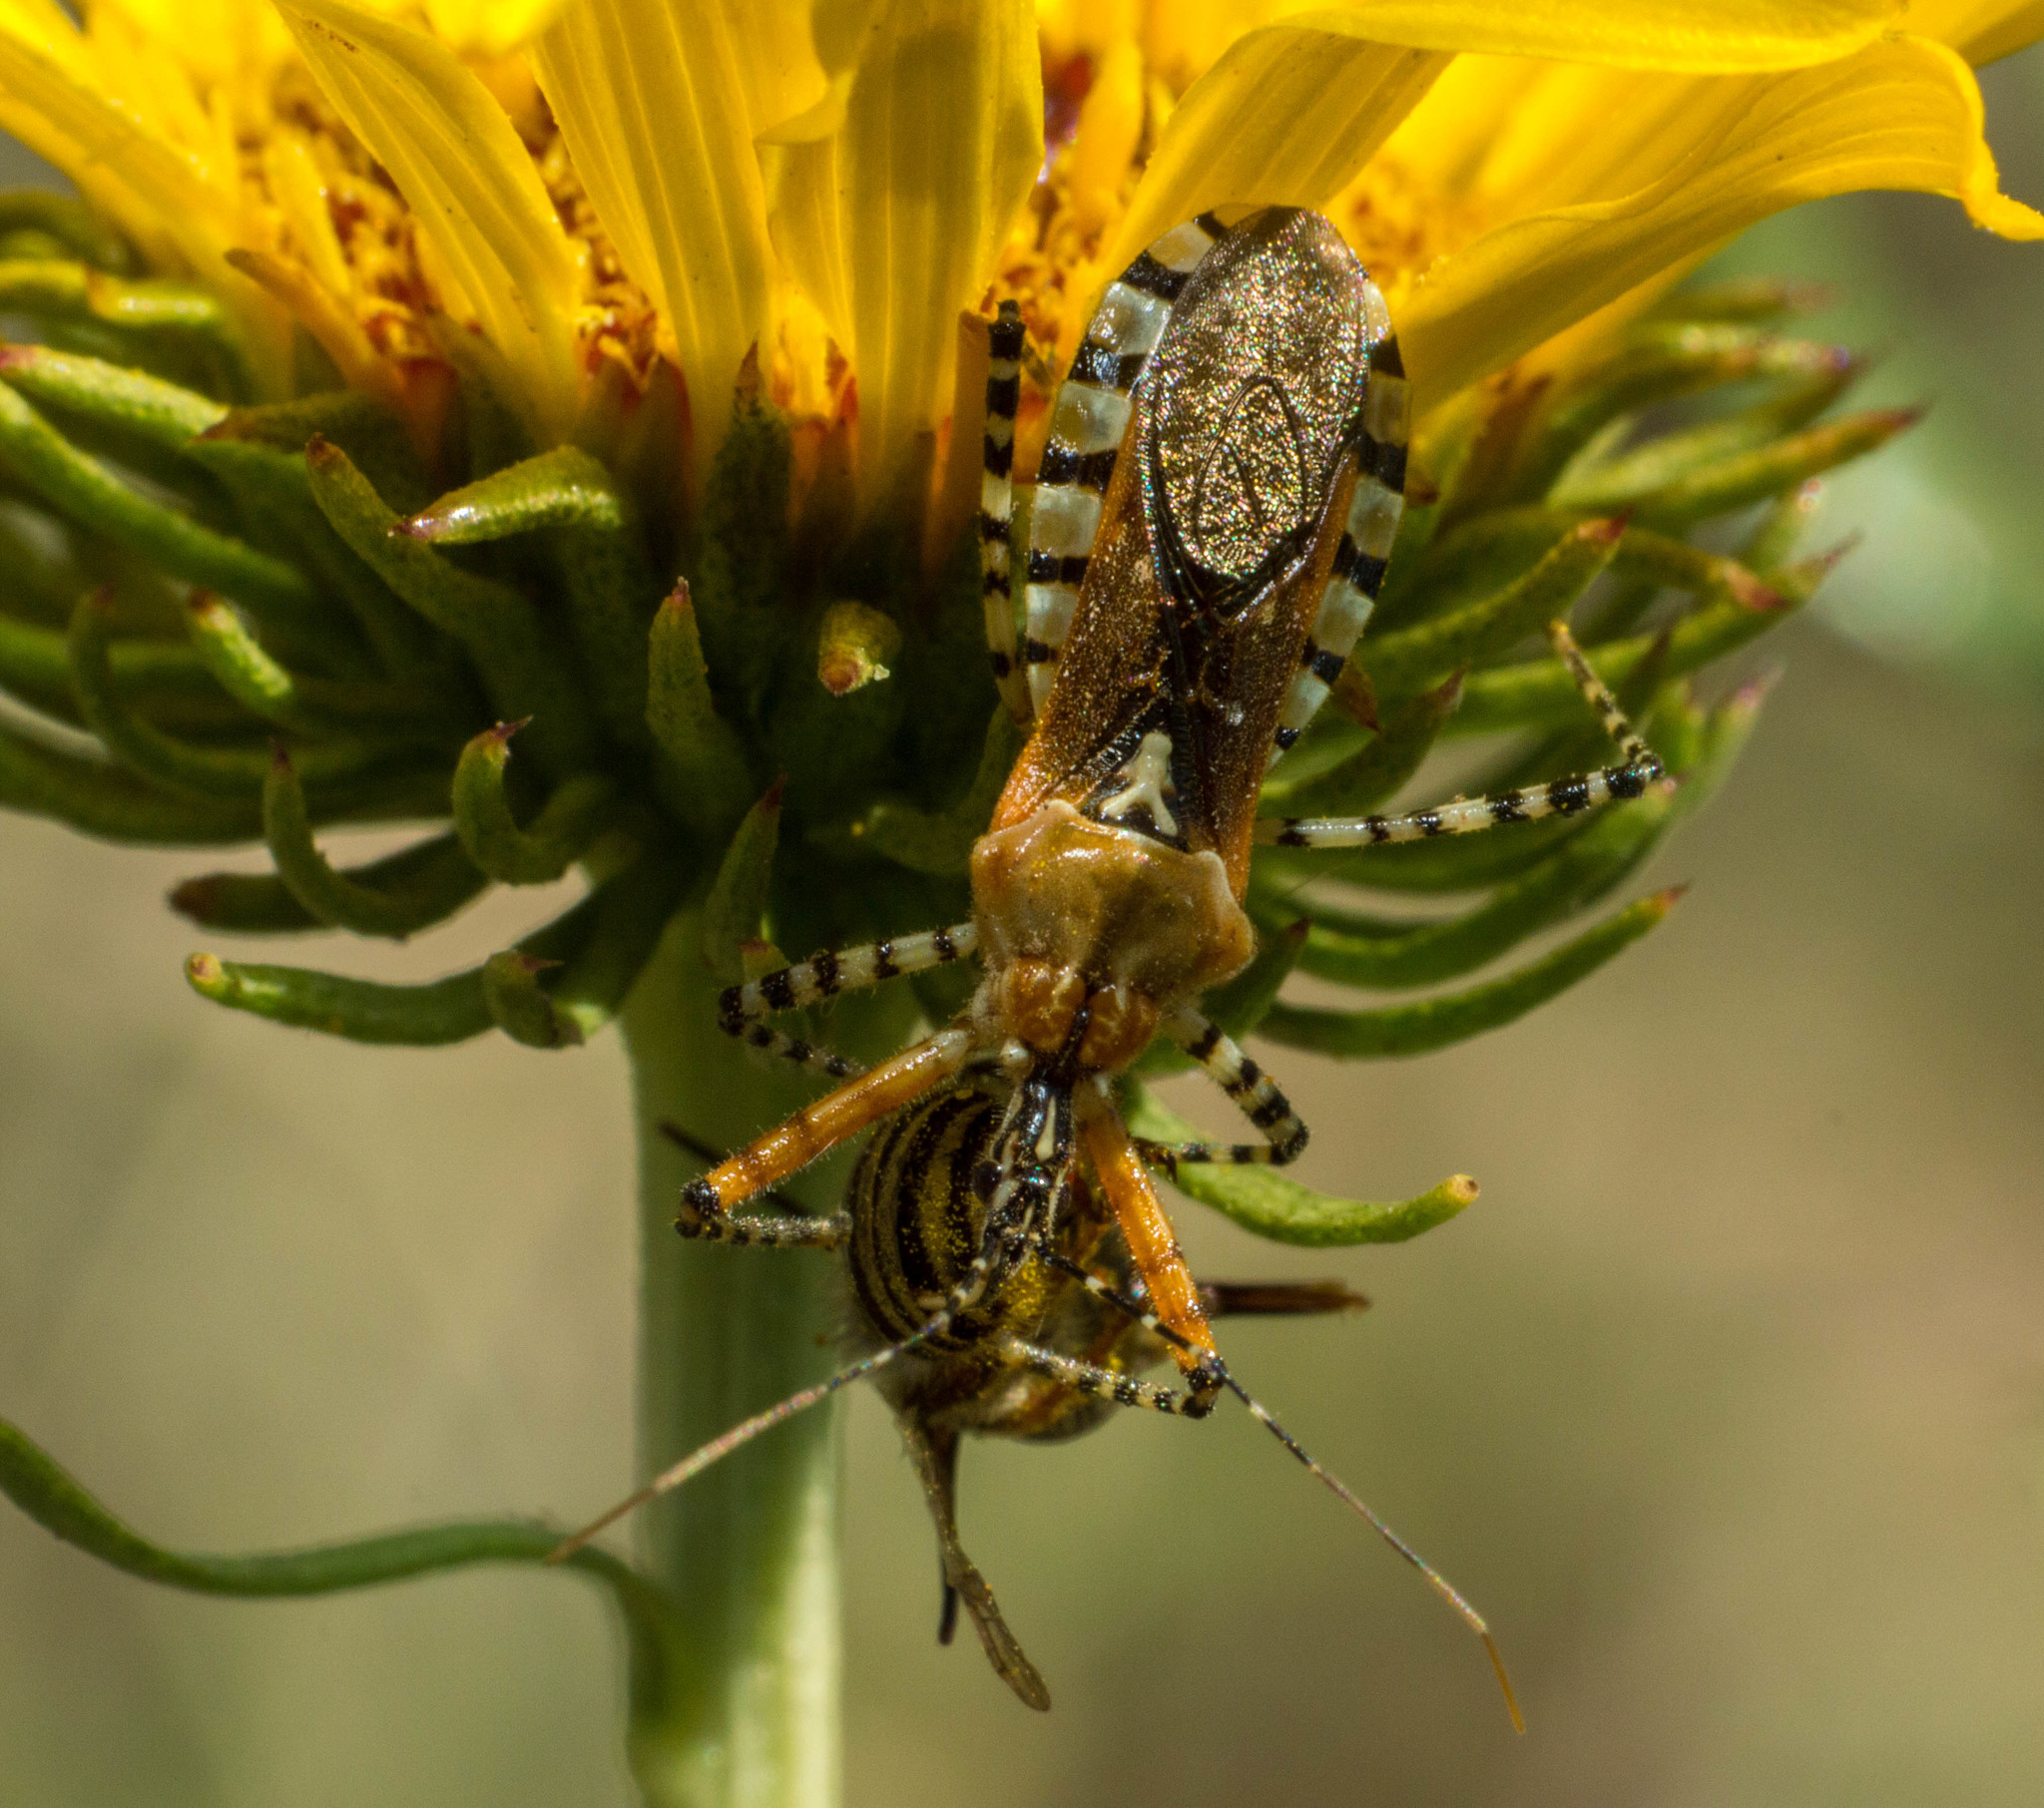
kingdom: Animalia
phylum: Arthropoda
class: Insecta
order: Hemiptera
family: Reduviidae
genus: Cosmoclopius
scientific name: Cosmoclopius nigroannulatus
